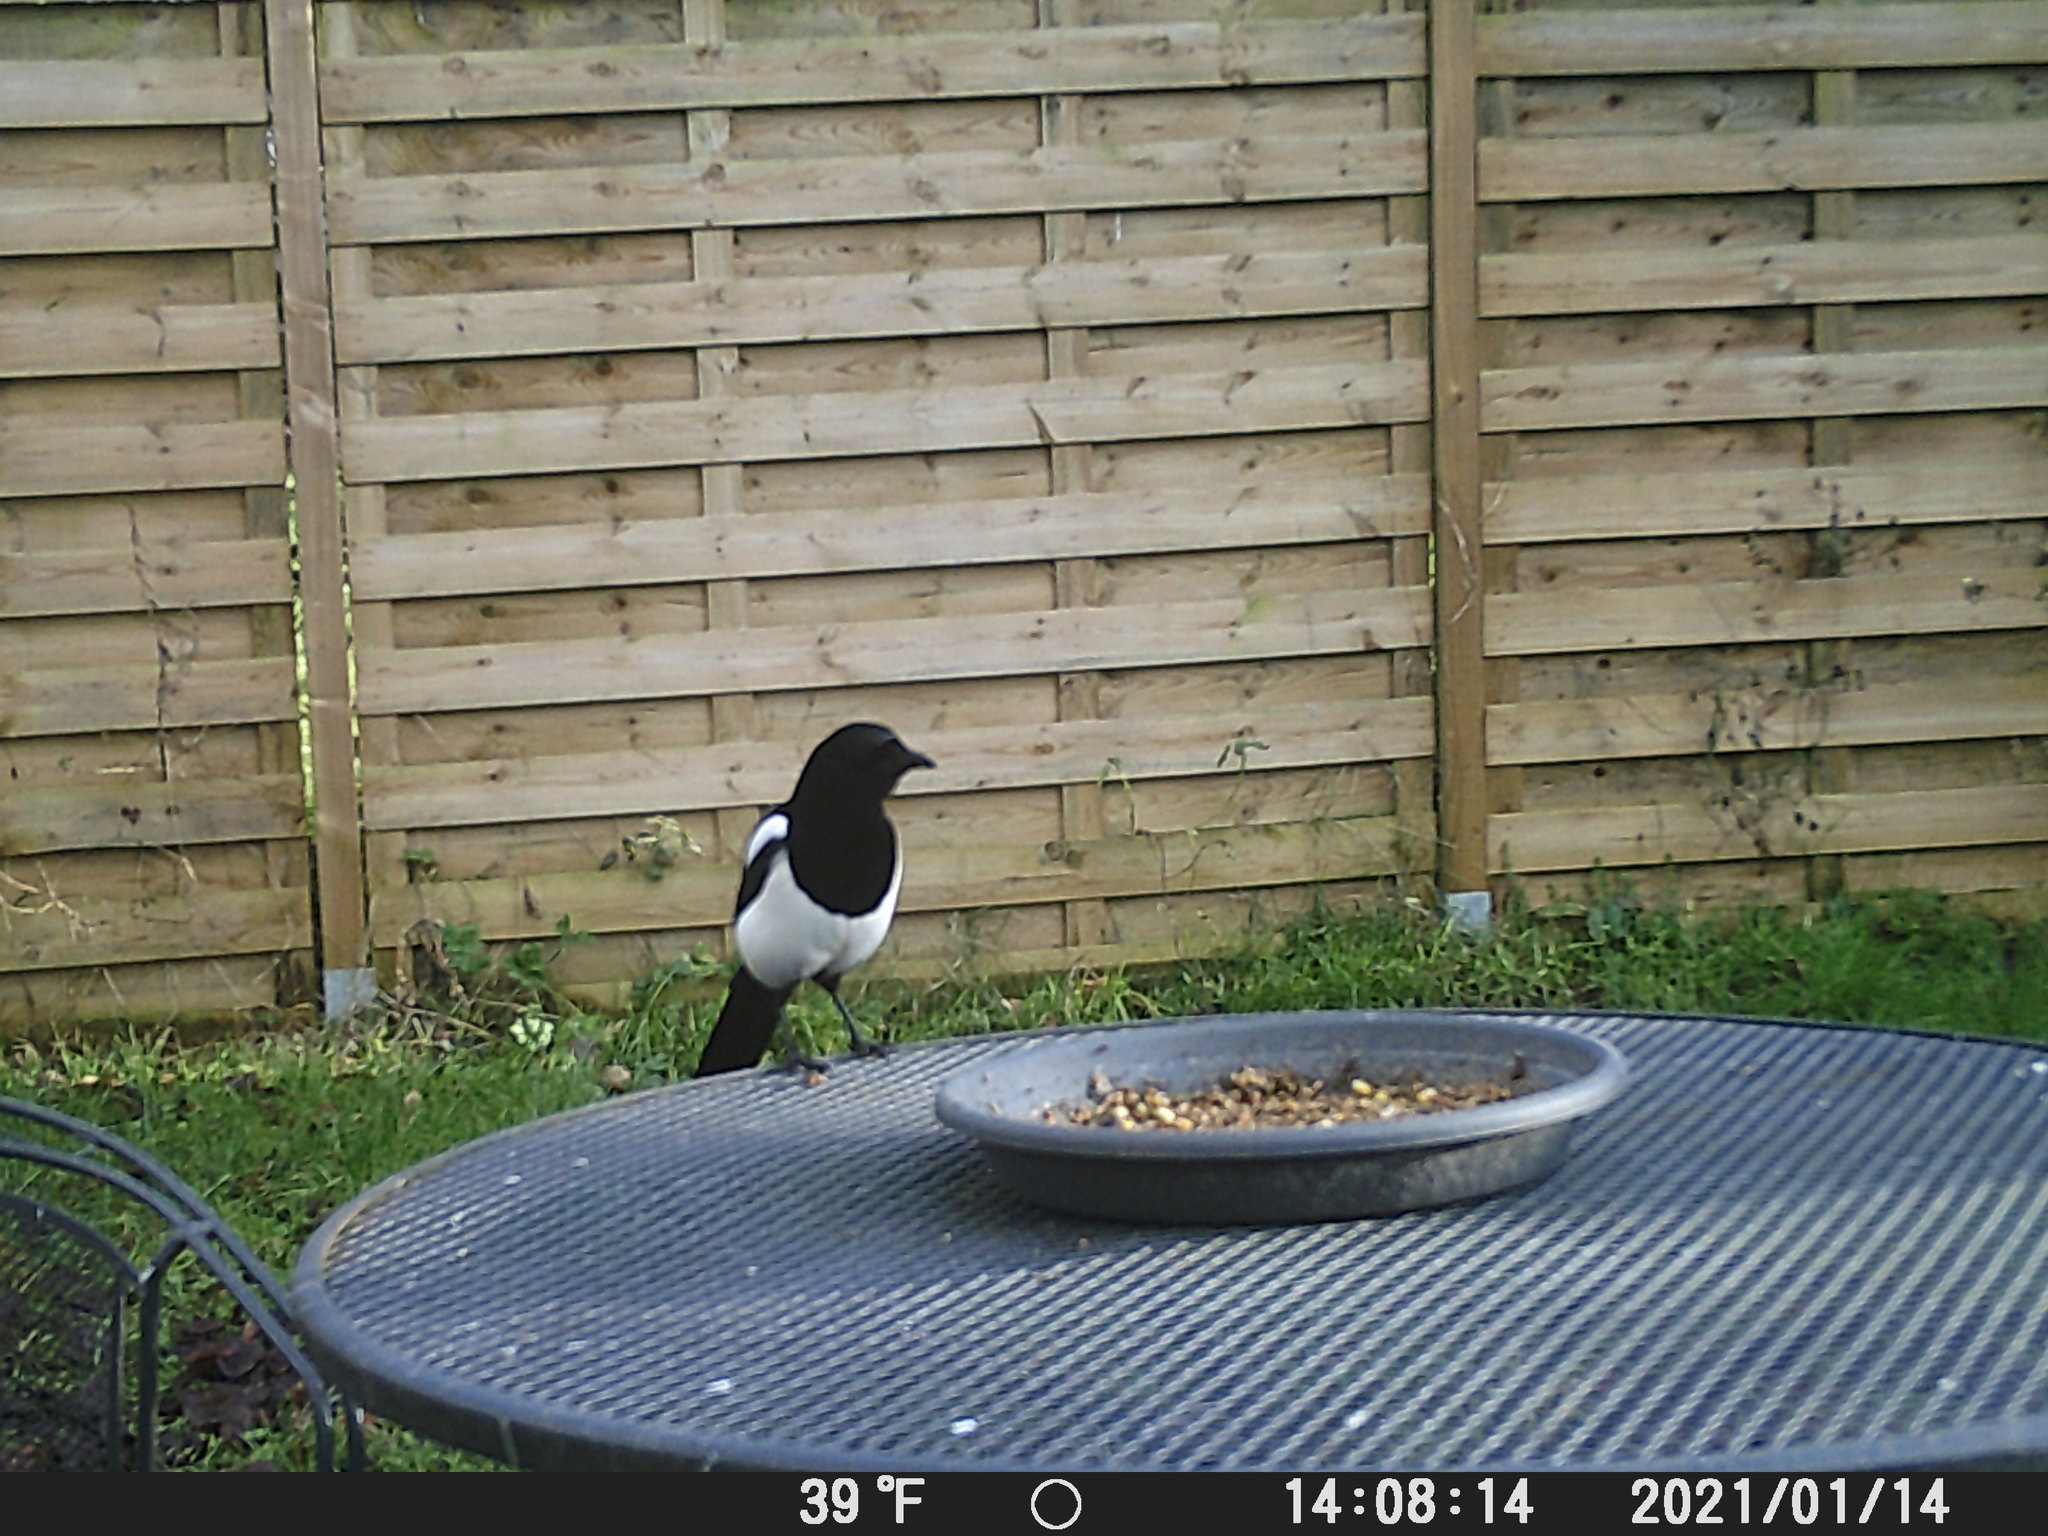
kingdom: Animalia
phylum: Chordata
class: Aves
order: Passeriformes
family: Corvidae
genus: Pica
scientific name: Pica pica
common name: Eurasian magpie
